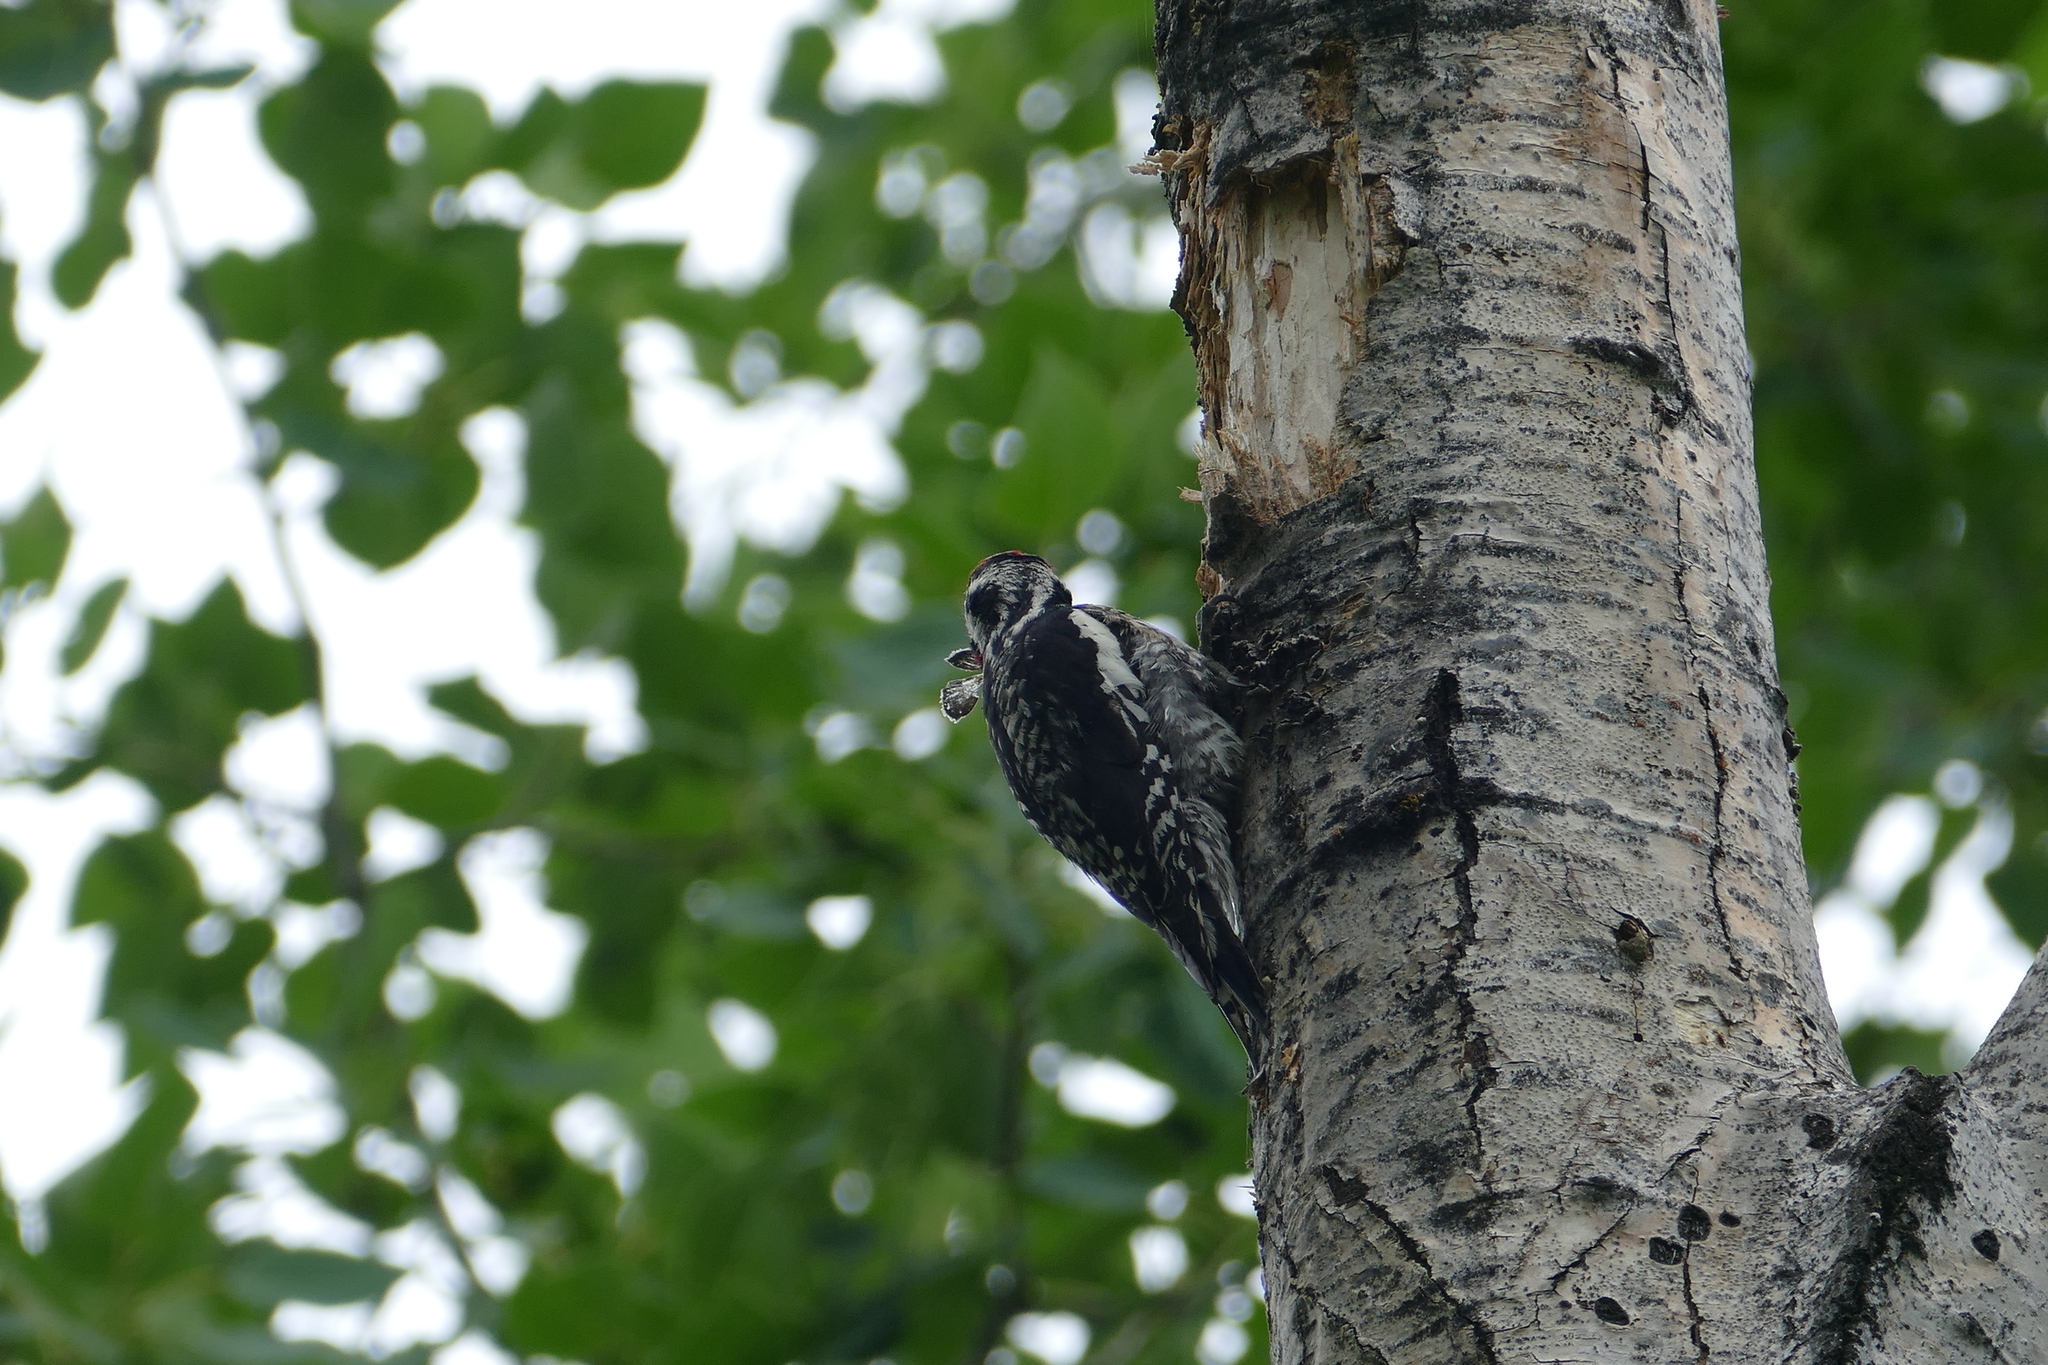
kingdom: Animalia
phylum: Chordata
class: Aves
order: Piciformes
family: Picidae
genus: Sphyrapicus
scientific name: Sphyrapicus varius
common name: Yellow-bellied sapsucker
